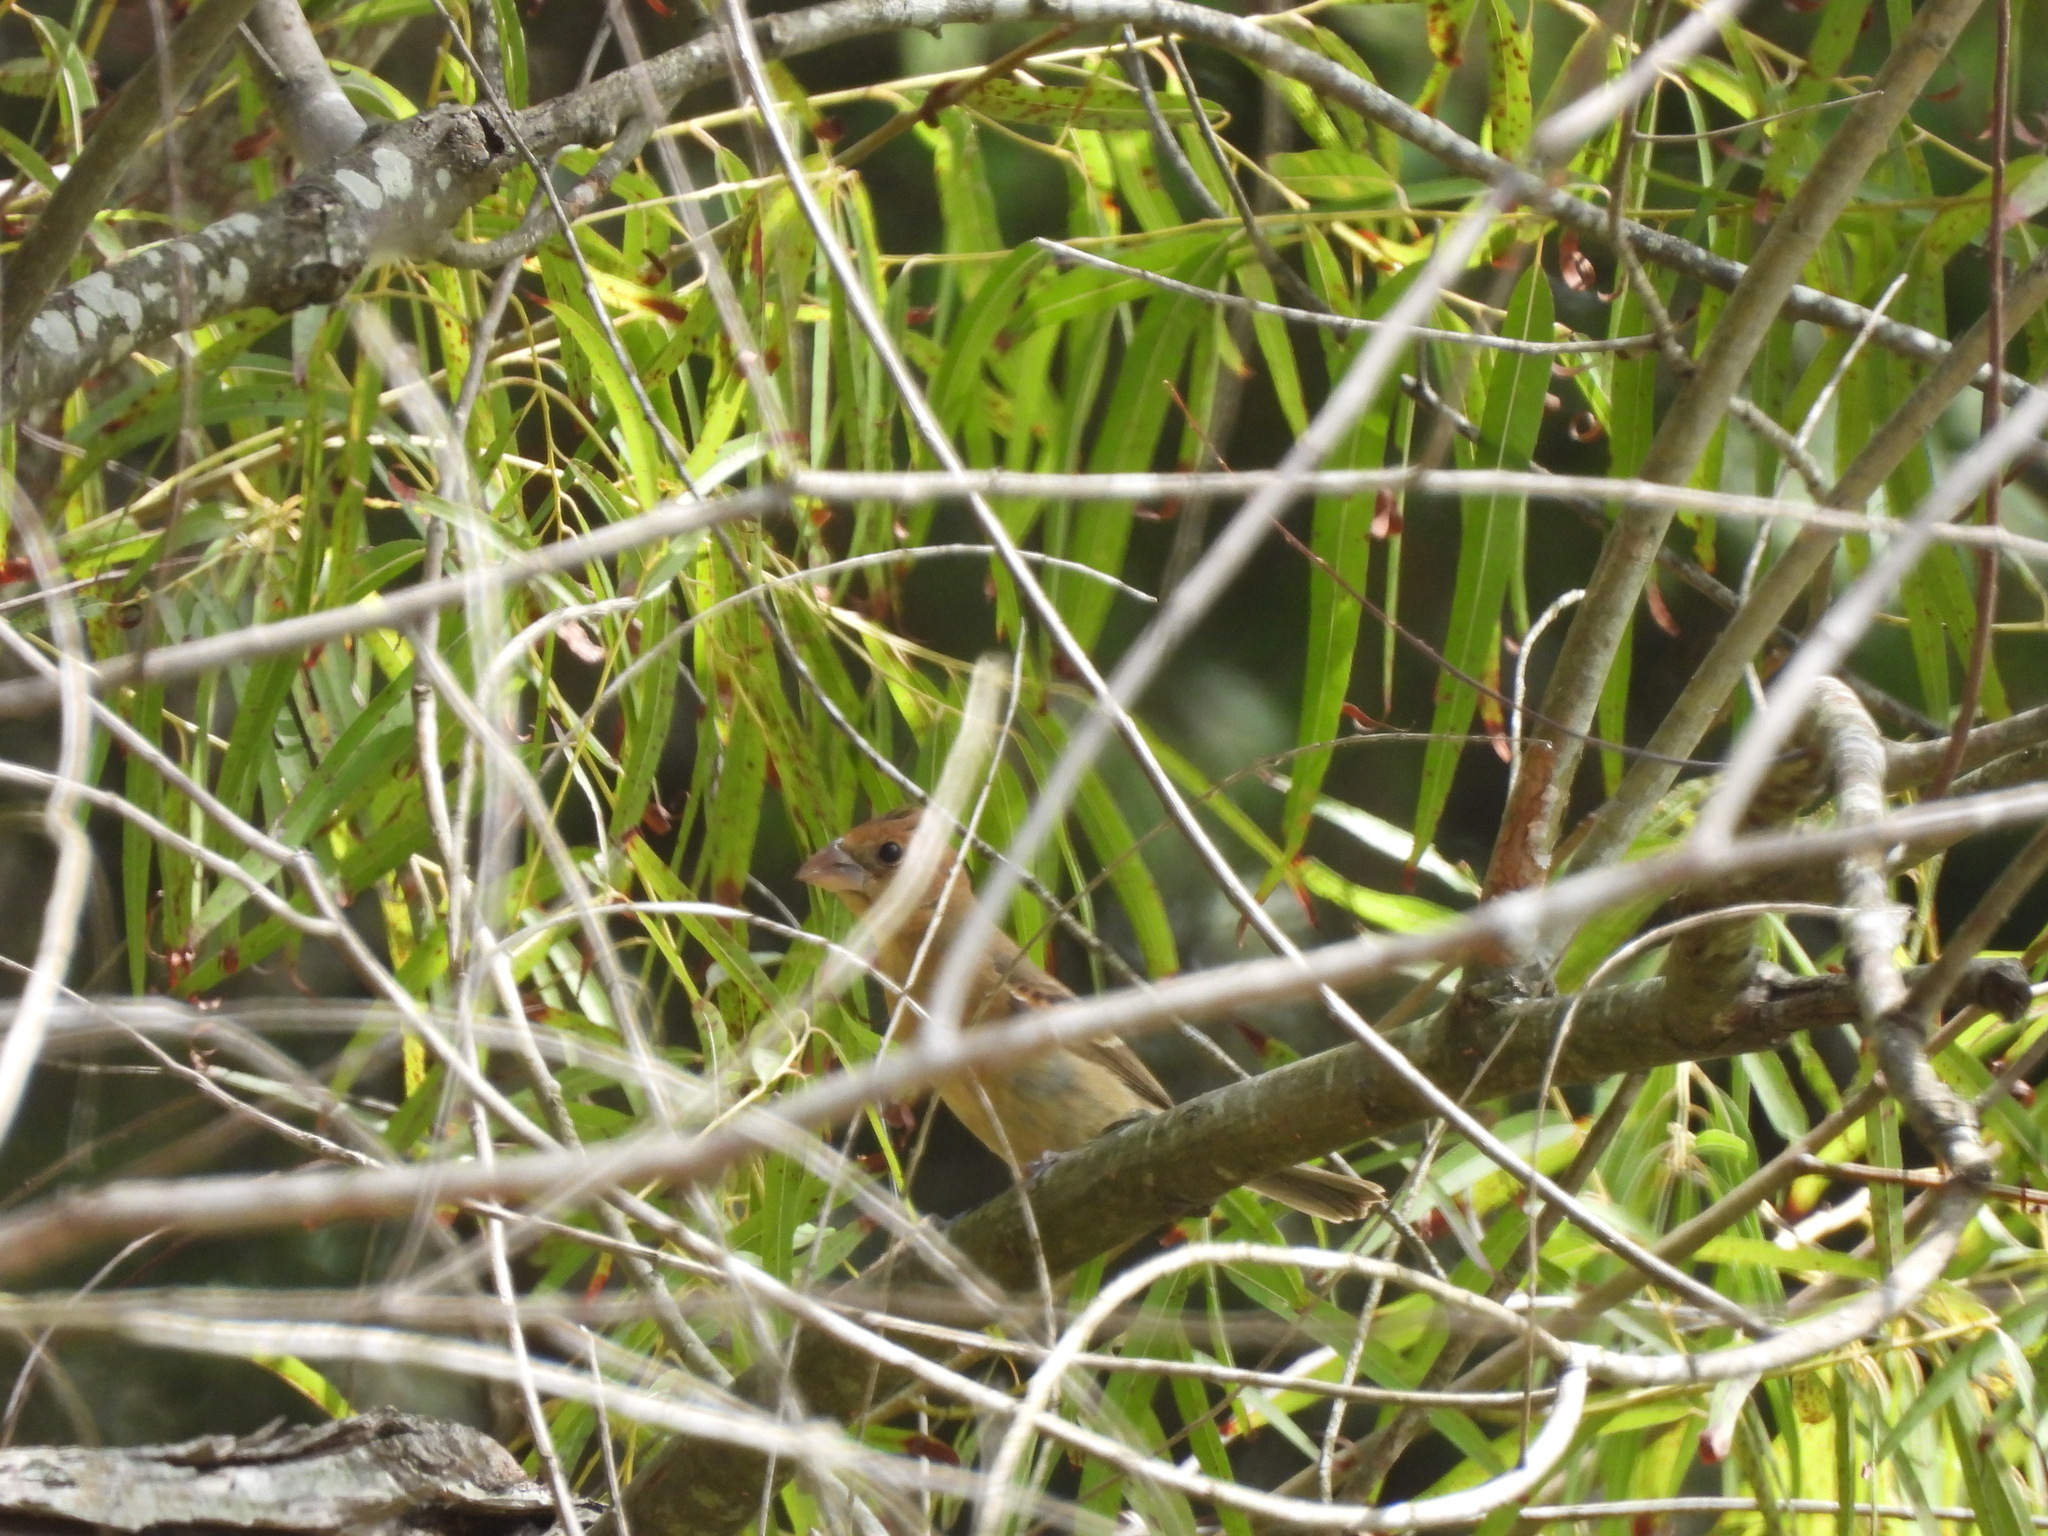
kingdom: Animalia
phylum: Chordata
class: Aves
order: Passeriformes
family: Cardinalidae
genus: Passerina
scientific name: Passerina caerulea
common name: Blue grosbeak
